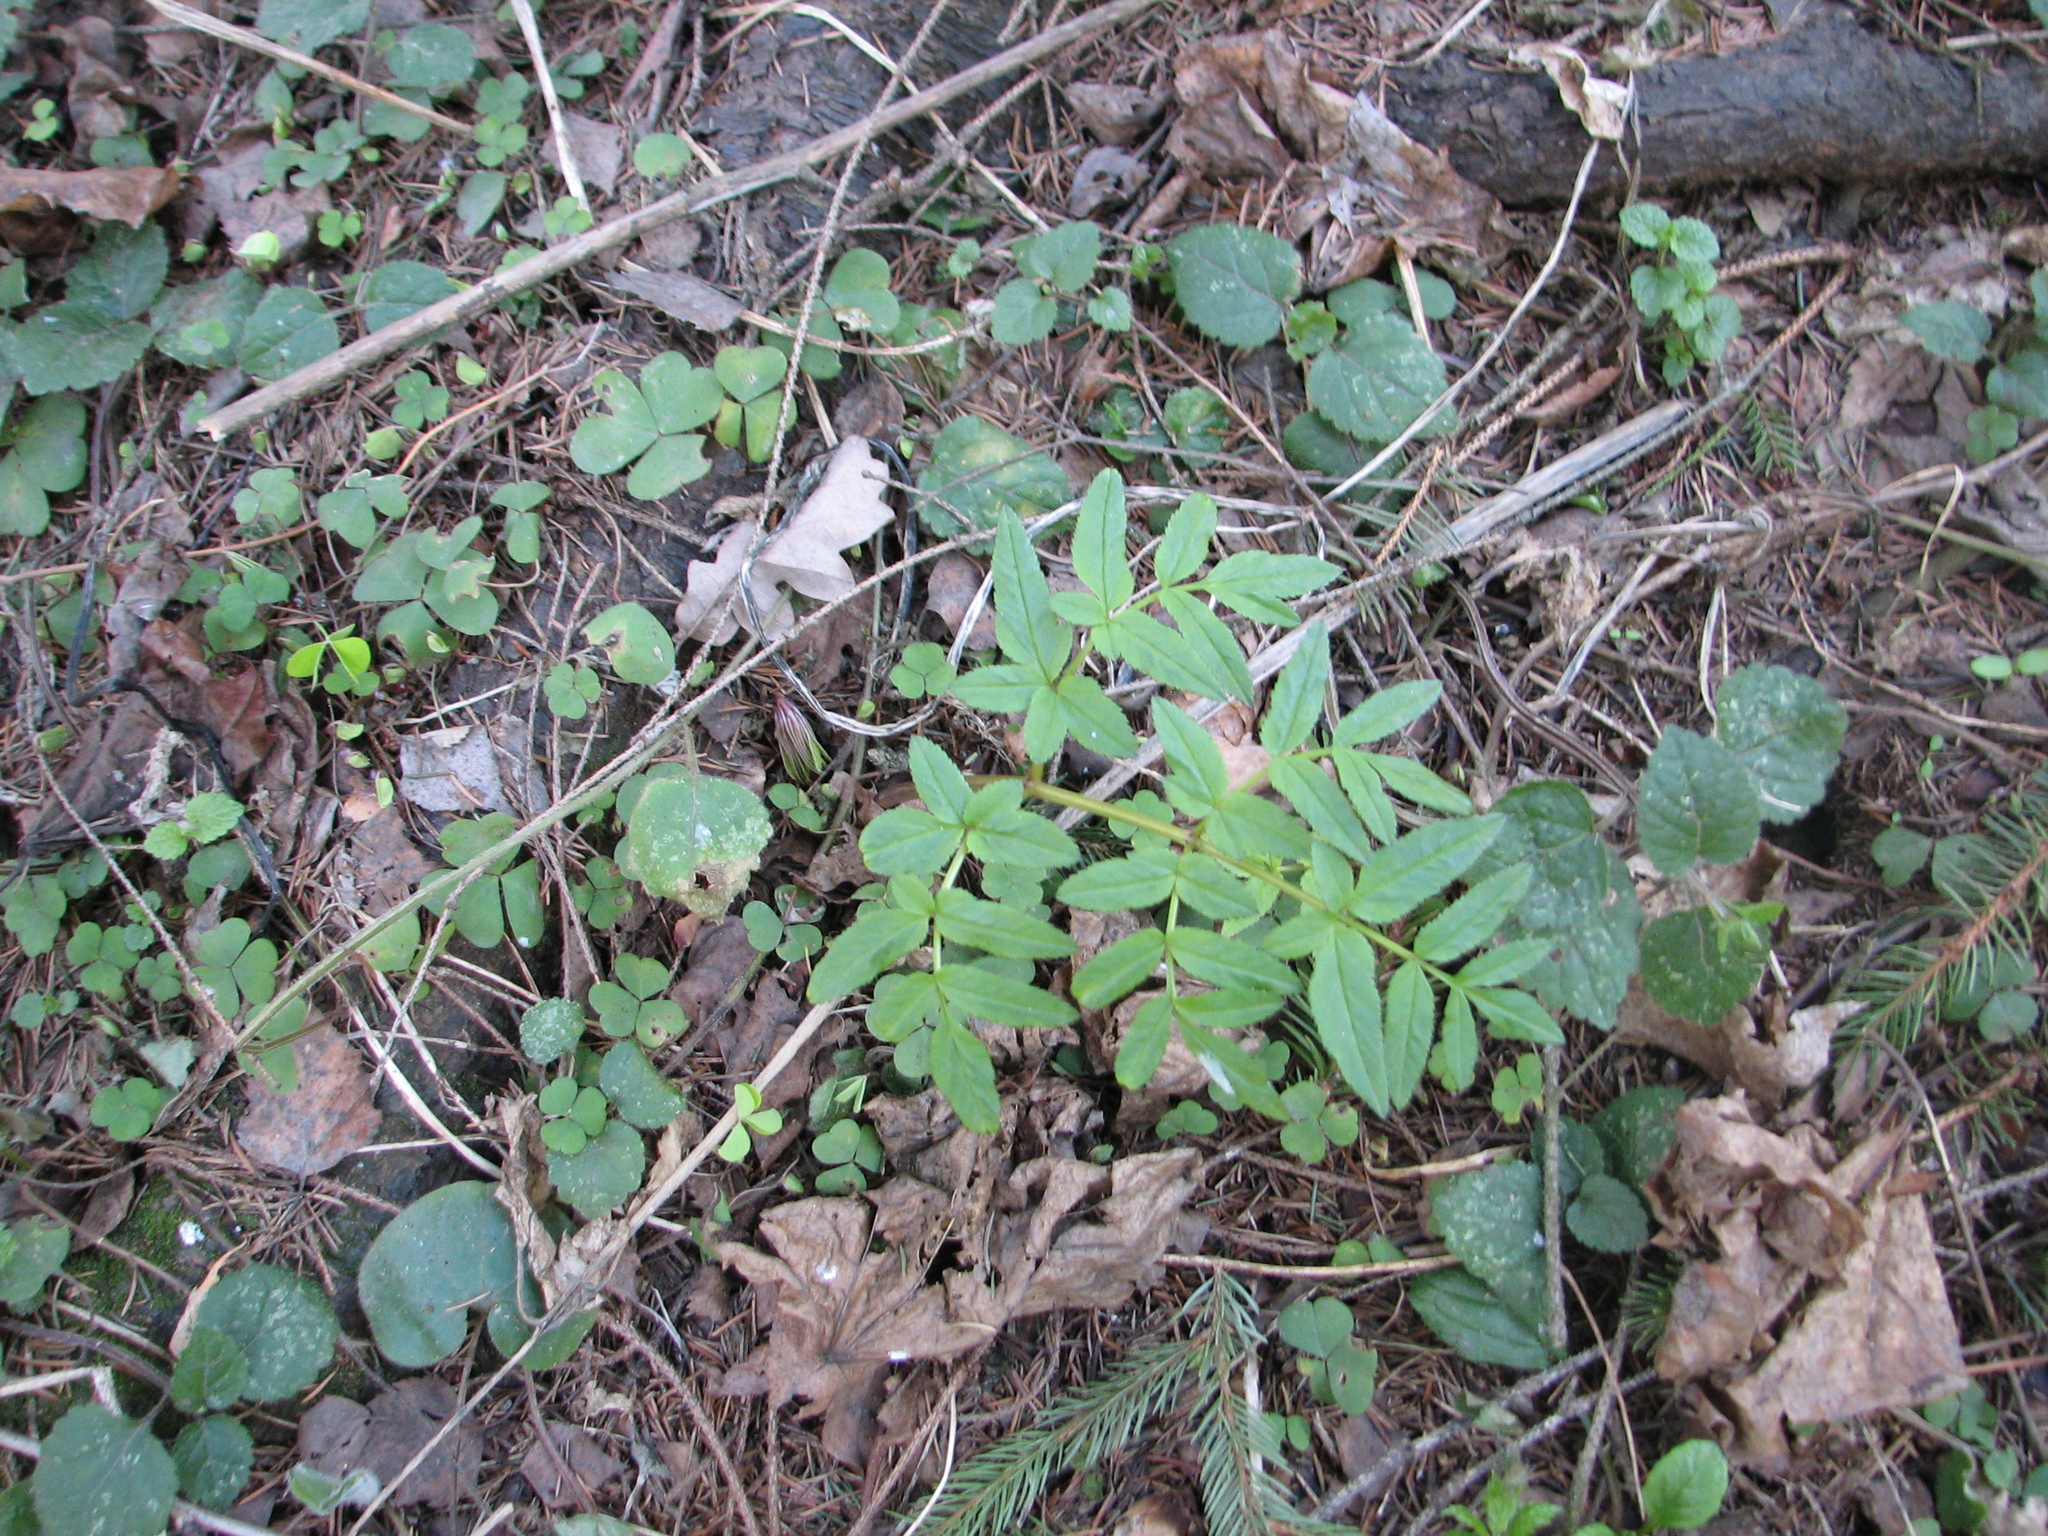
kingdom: Plantae
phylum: Tracheophyta
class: Magnoliopsida
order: Apiales
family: Apiaceae
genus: Angelica
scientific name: Angelica sylvestris
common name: Wild angelica
